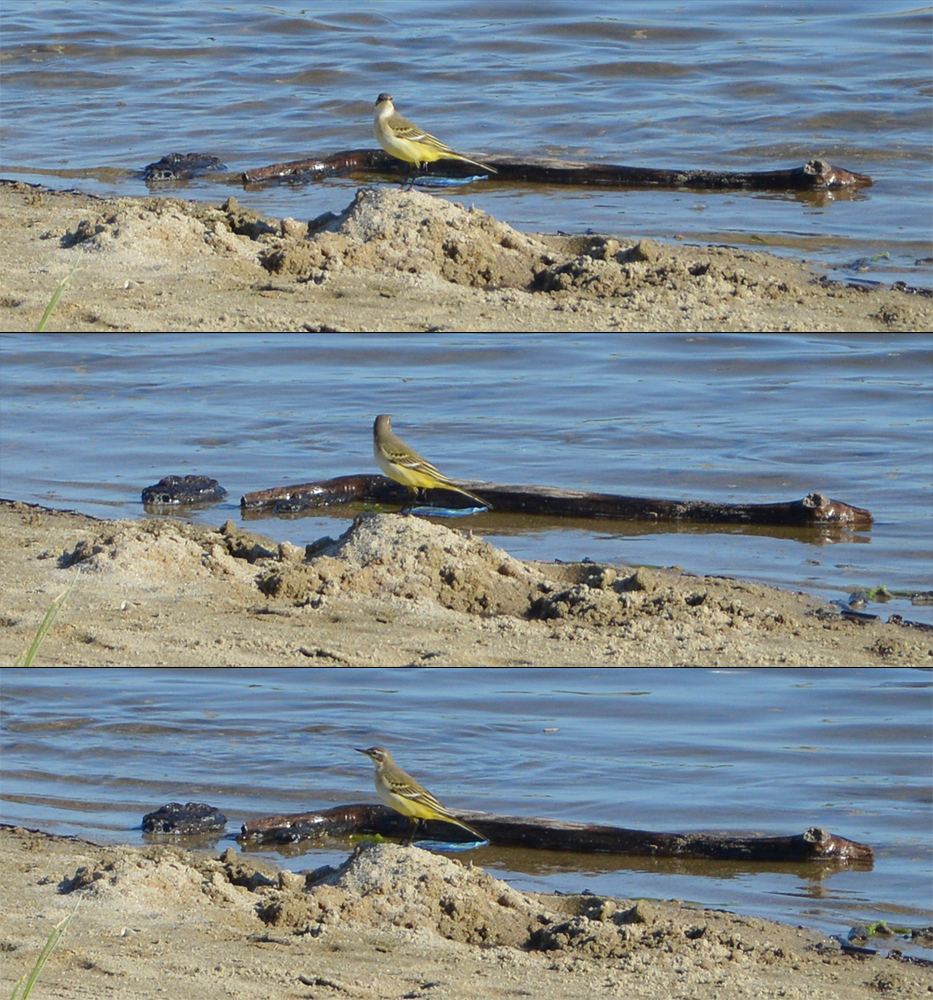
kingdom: Animalia
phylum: Chordata
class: Aves
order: Passeriformes
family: Motacillidae
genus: Motacilla
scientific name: Motacilla flava
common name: Western yellow wagtail
